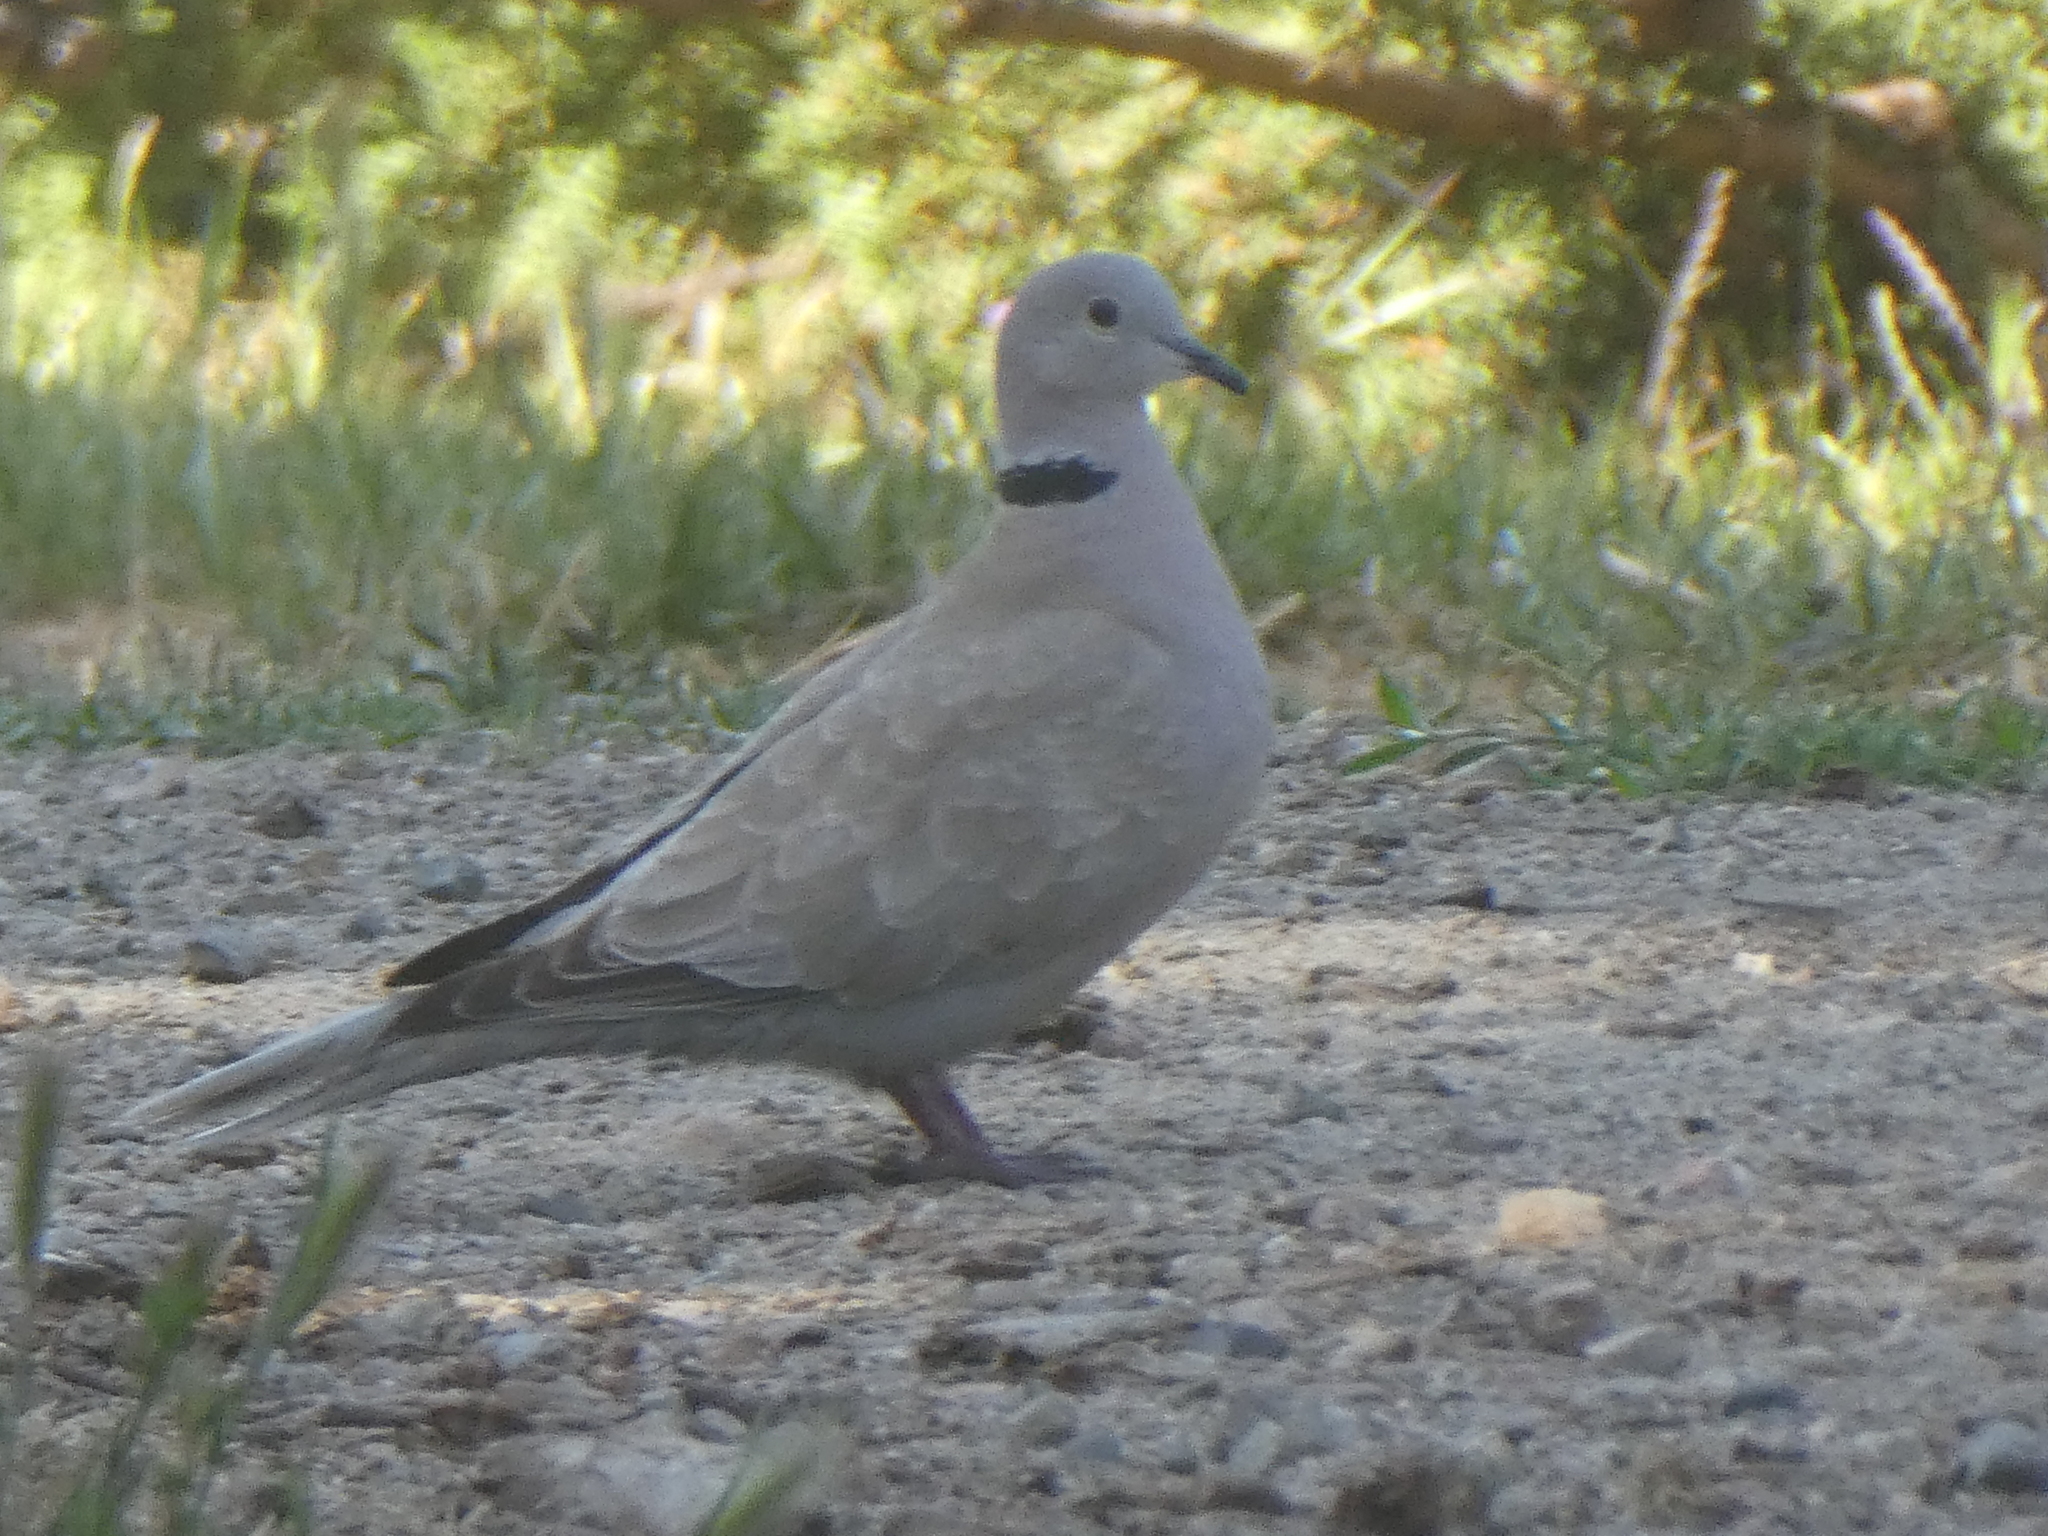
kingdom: Animalia
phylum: Chordata
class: Aves
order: Columbiformes
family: Columbidae
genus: Streptopelia
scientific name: Streptopelia decaocto
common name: Eurasian collared dove
